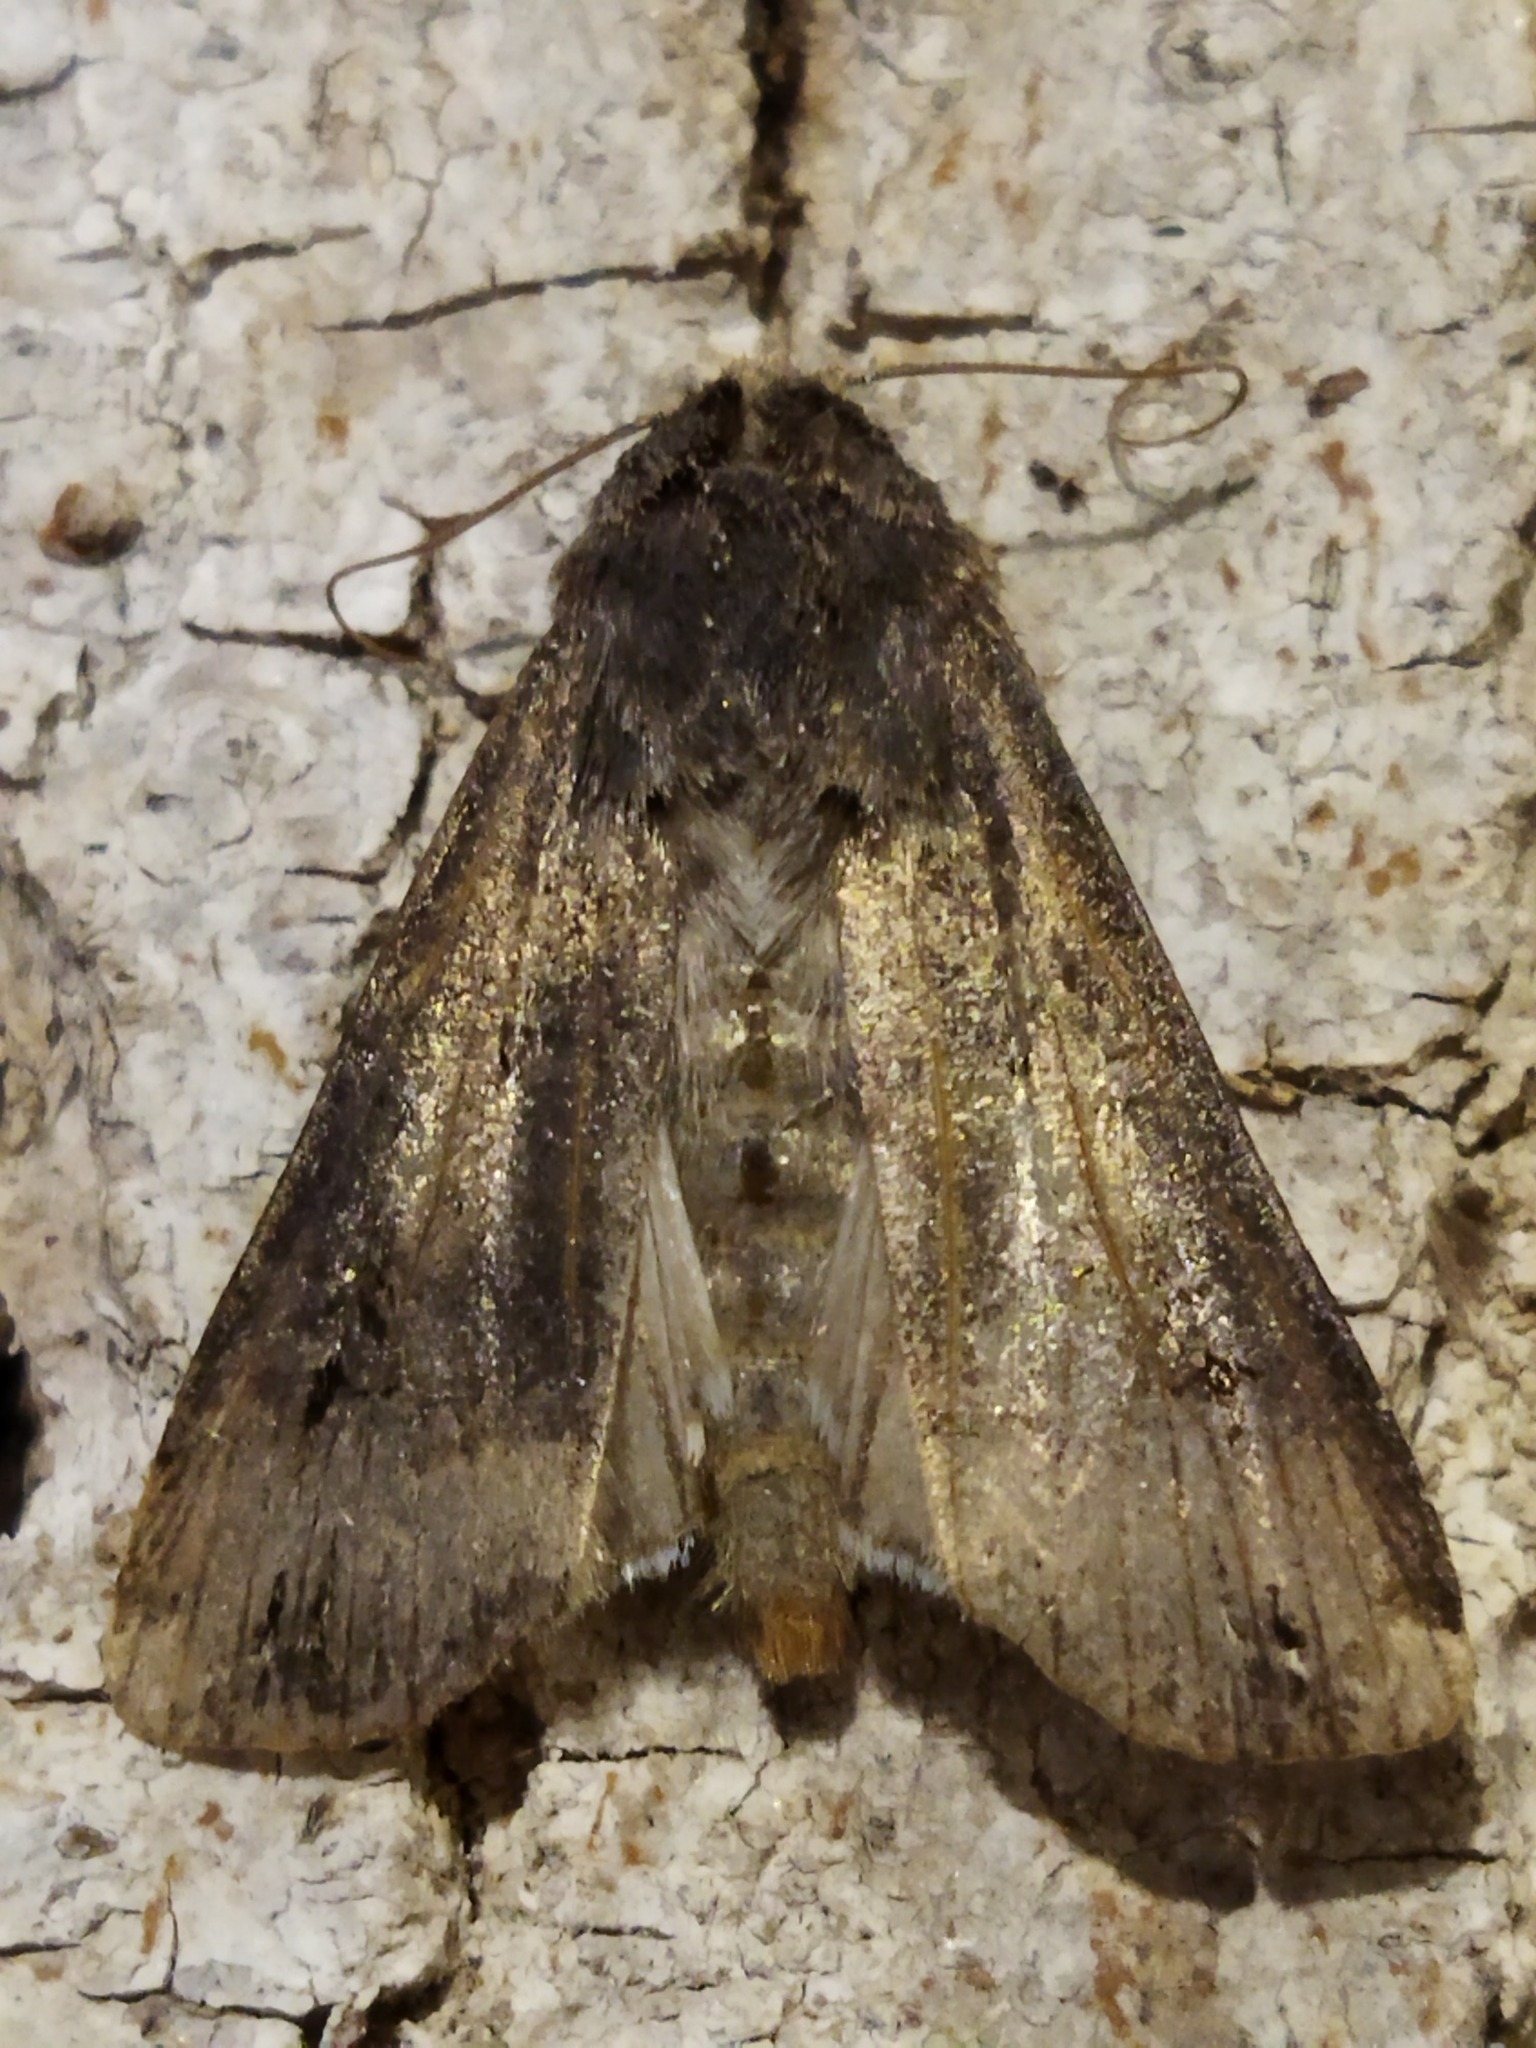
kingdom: Animalia
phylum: Arthropoda
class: Insecta
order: Lepidoptera
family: Noctuidae
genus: Agrotis
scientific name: Agrotis ipsilon
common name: Dark sword-grass
